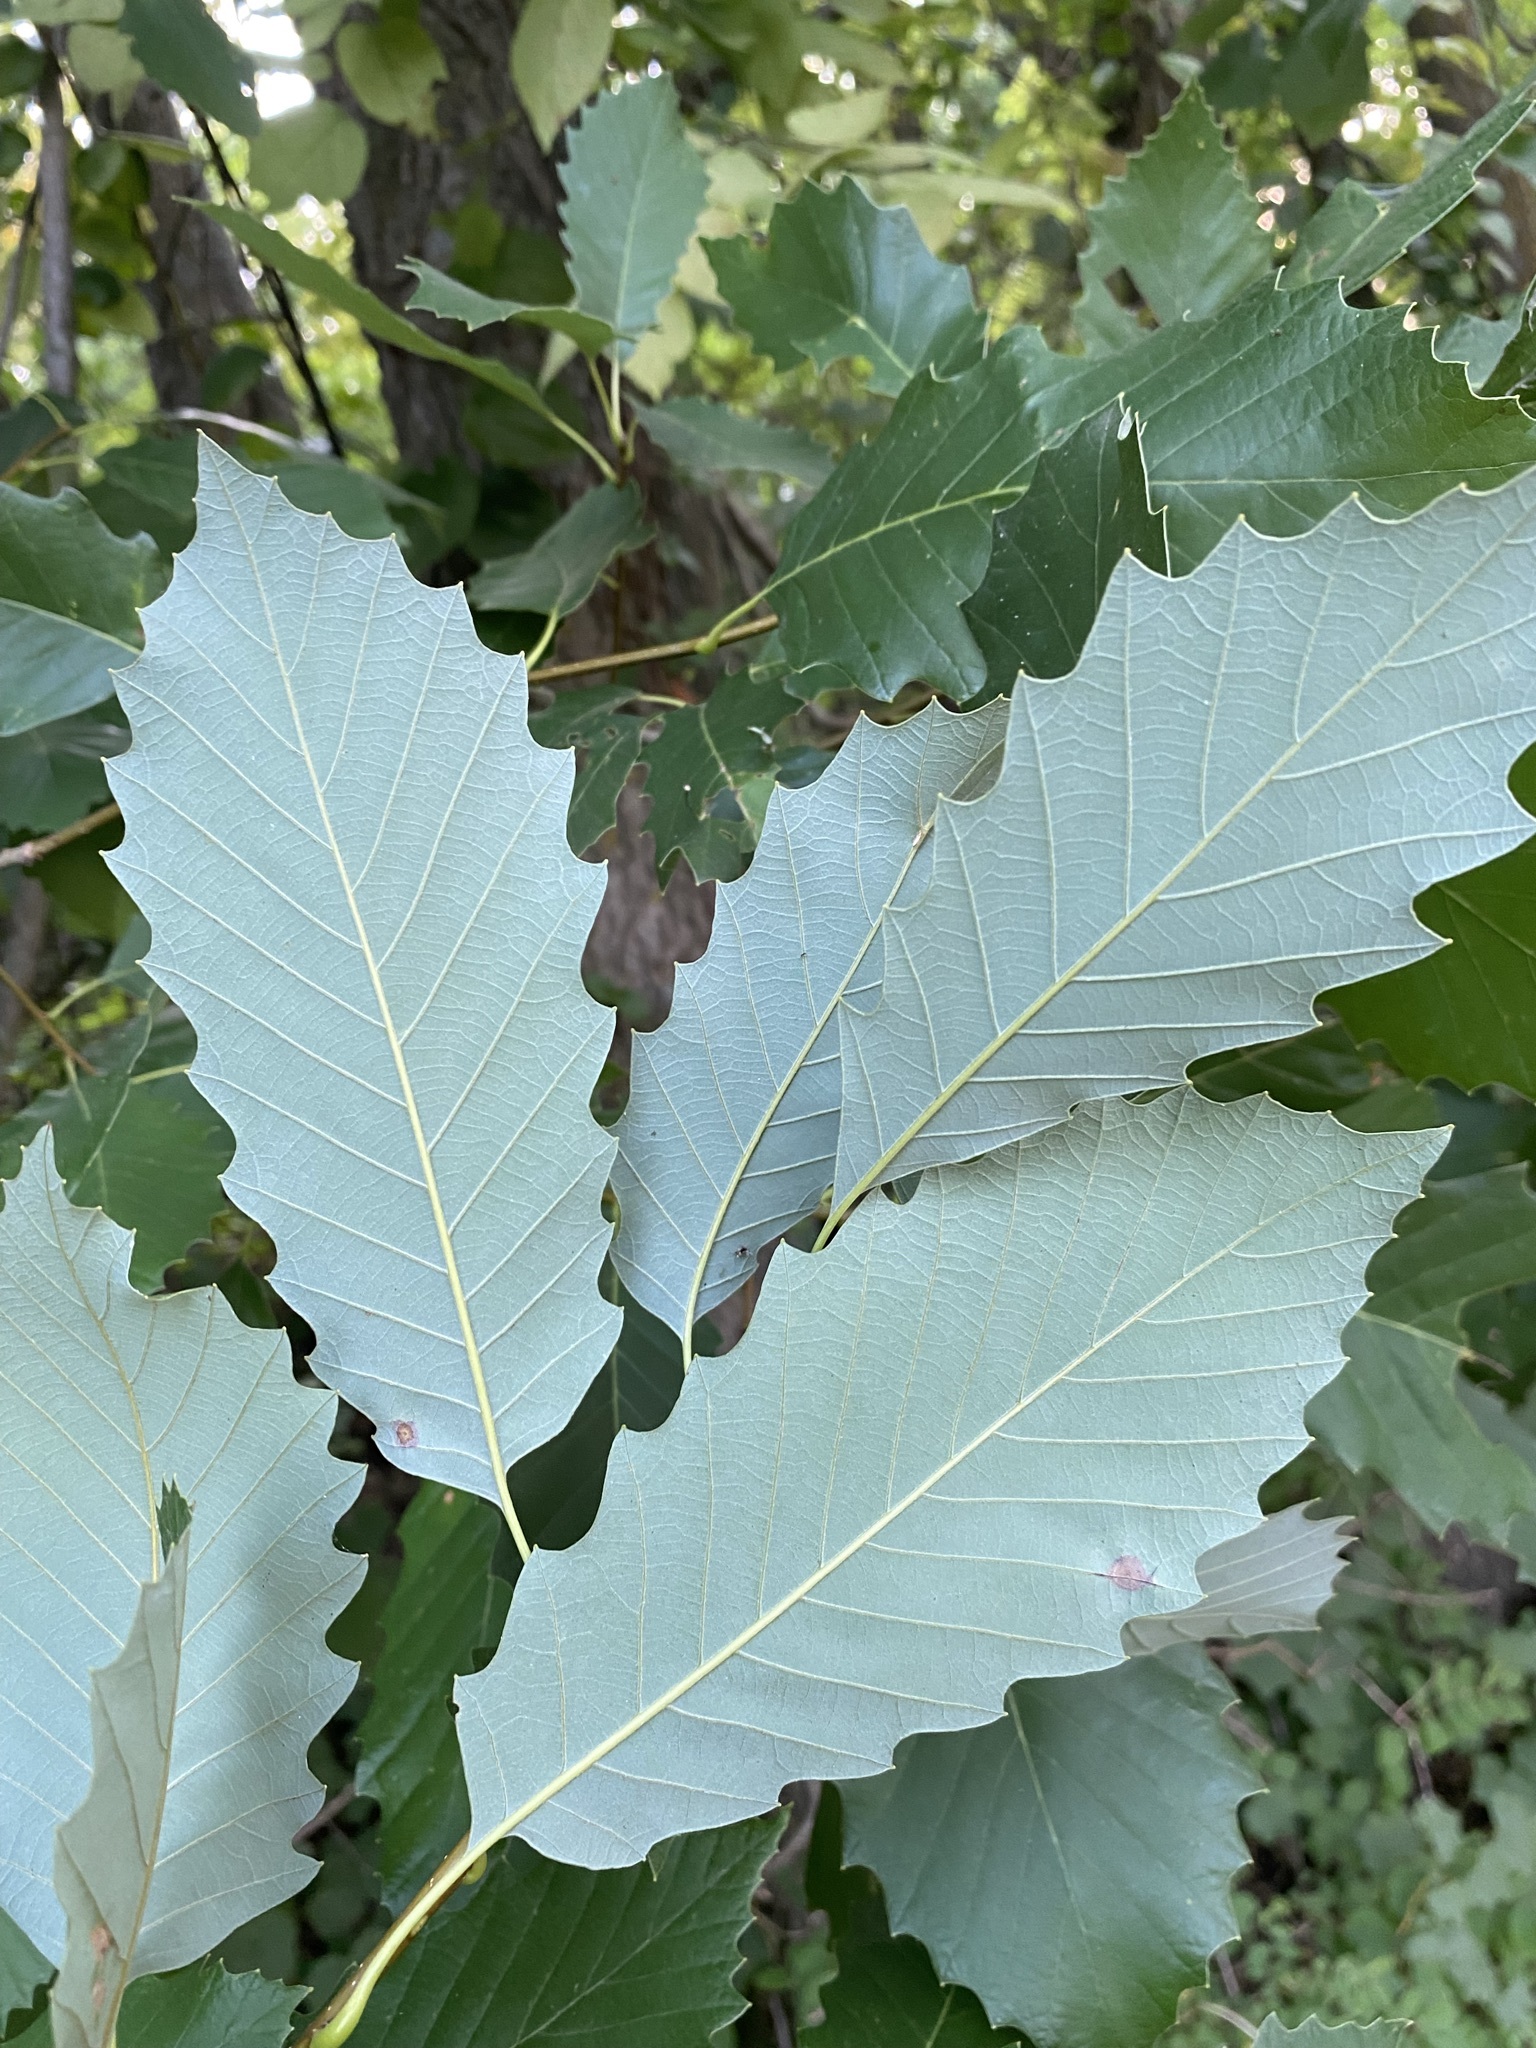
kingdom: Plantae
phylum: Tracheophyta
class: Magnoliopsida
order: Fagales
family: Fagaceae
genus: Quercus
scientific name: Quercus muehlenbergii
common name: Chinkapin oak
